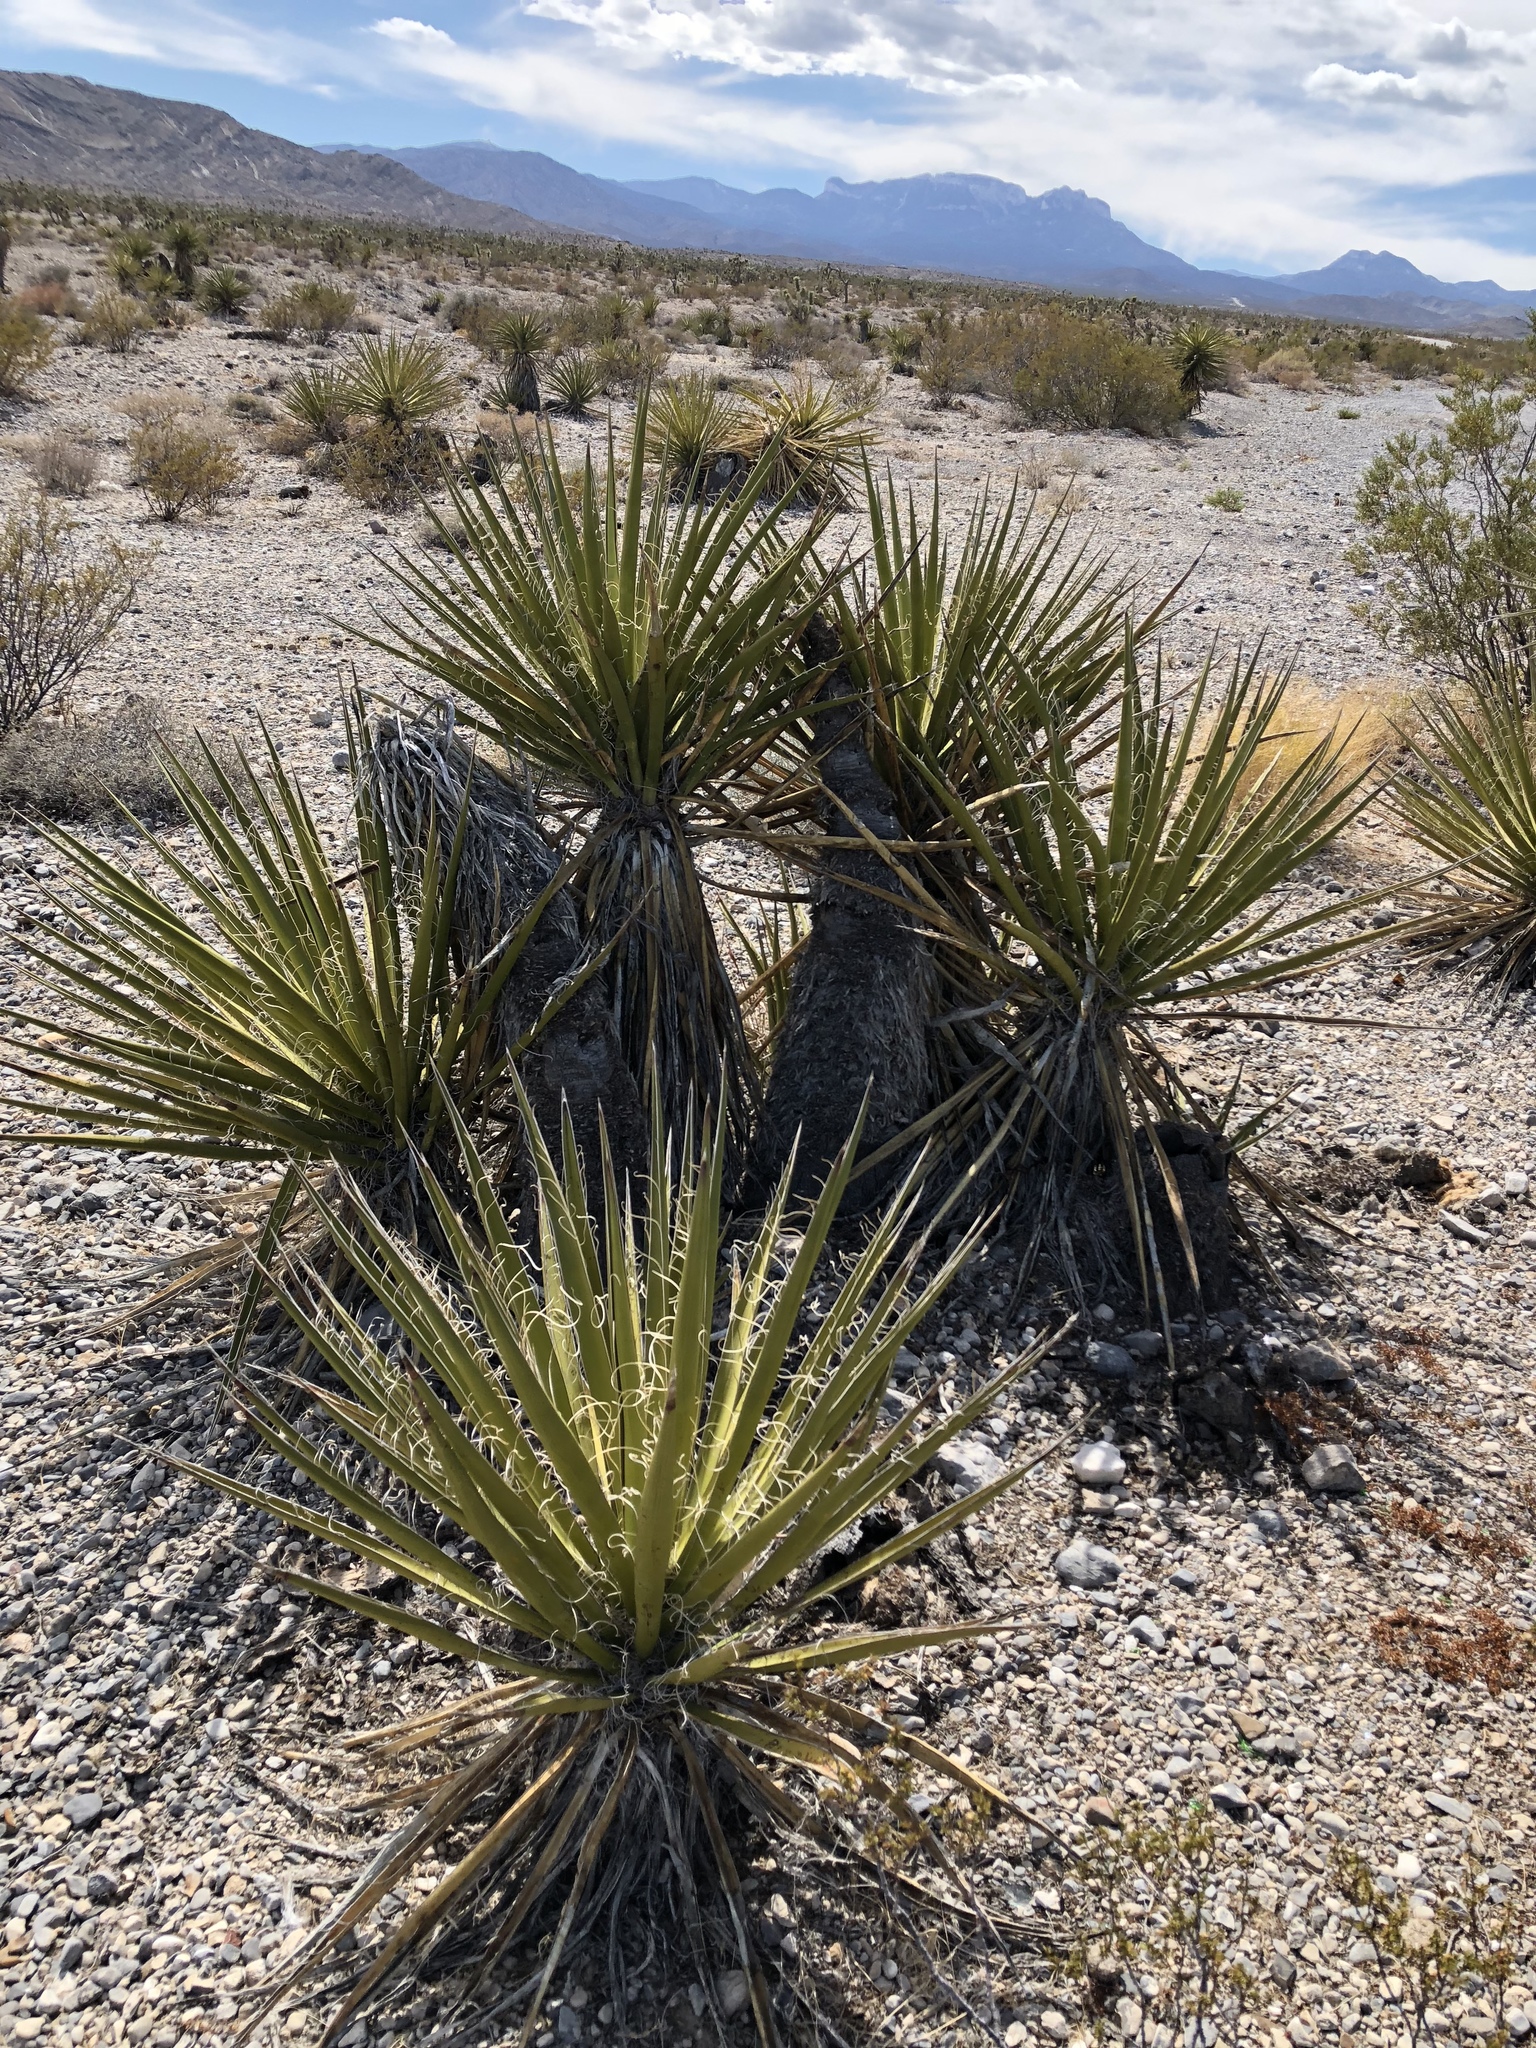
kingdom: Plantae
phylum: Tracheophyta
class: Liliopsida
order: Asparagales
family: Asparagaceae
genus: Yucca
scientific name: Yucca schidigera
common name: Mojave yucca
